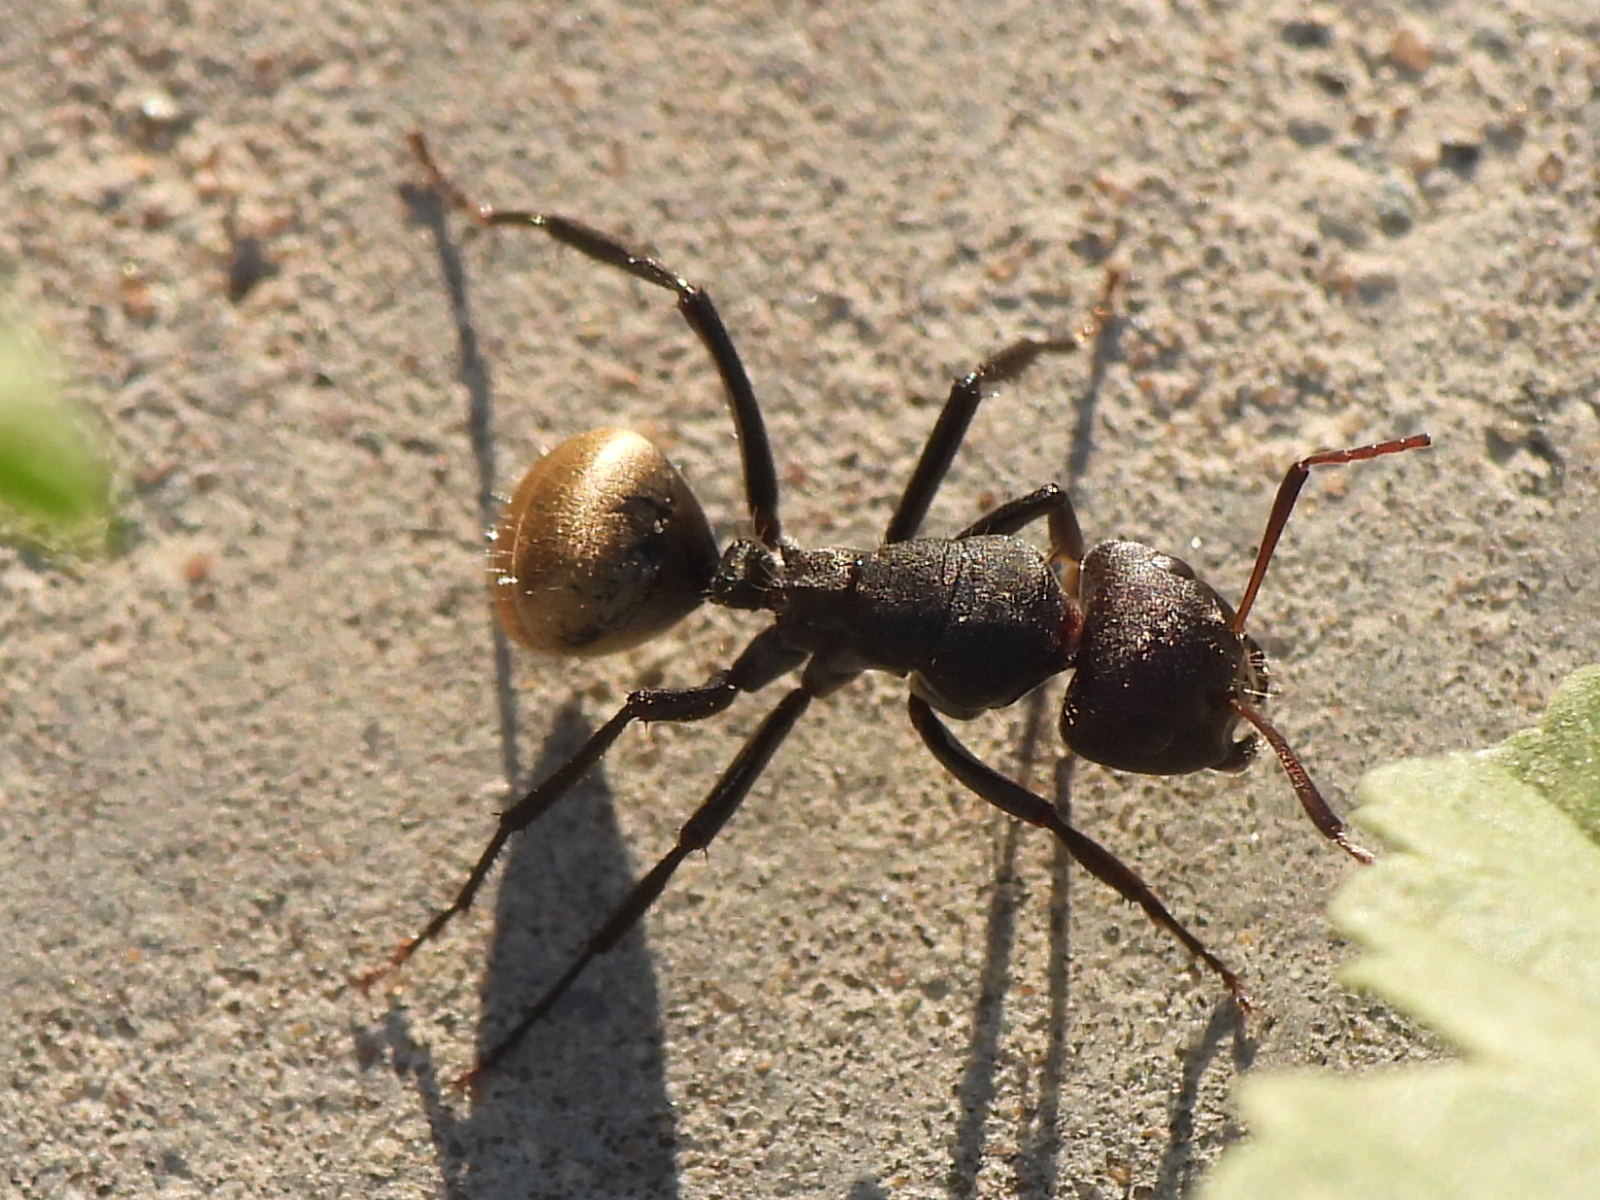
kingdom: Animalia
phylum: Arthropoda
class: Insecta
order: Hymenoptera
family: Formicidae
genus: Camponotus
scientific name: Camponotus sericeus
